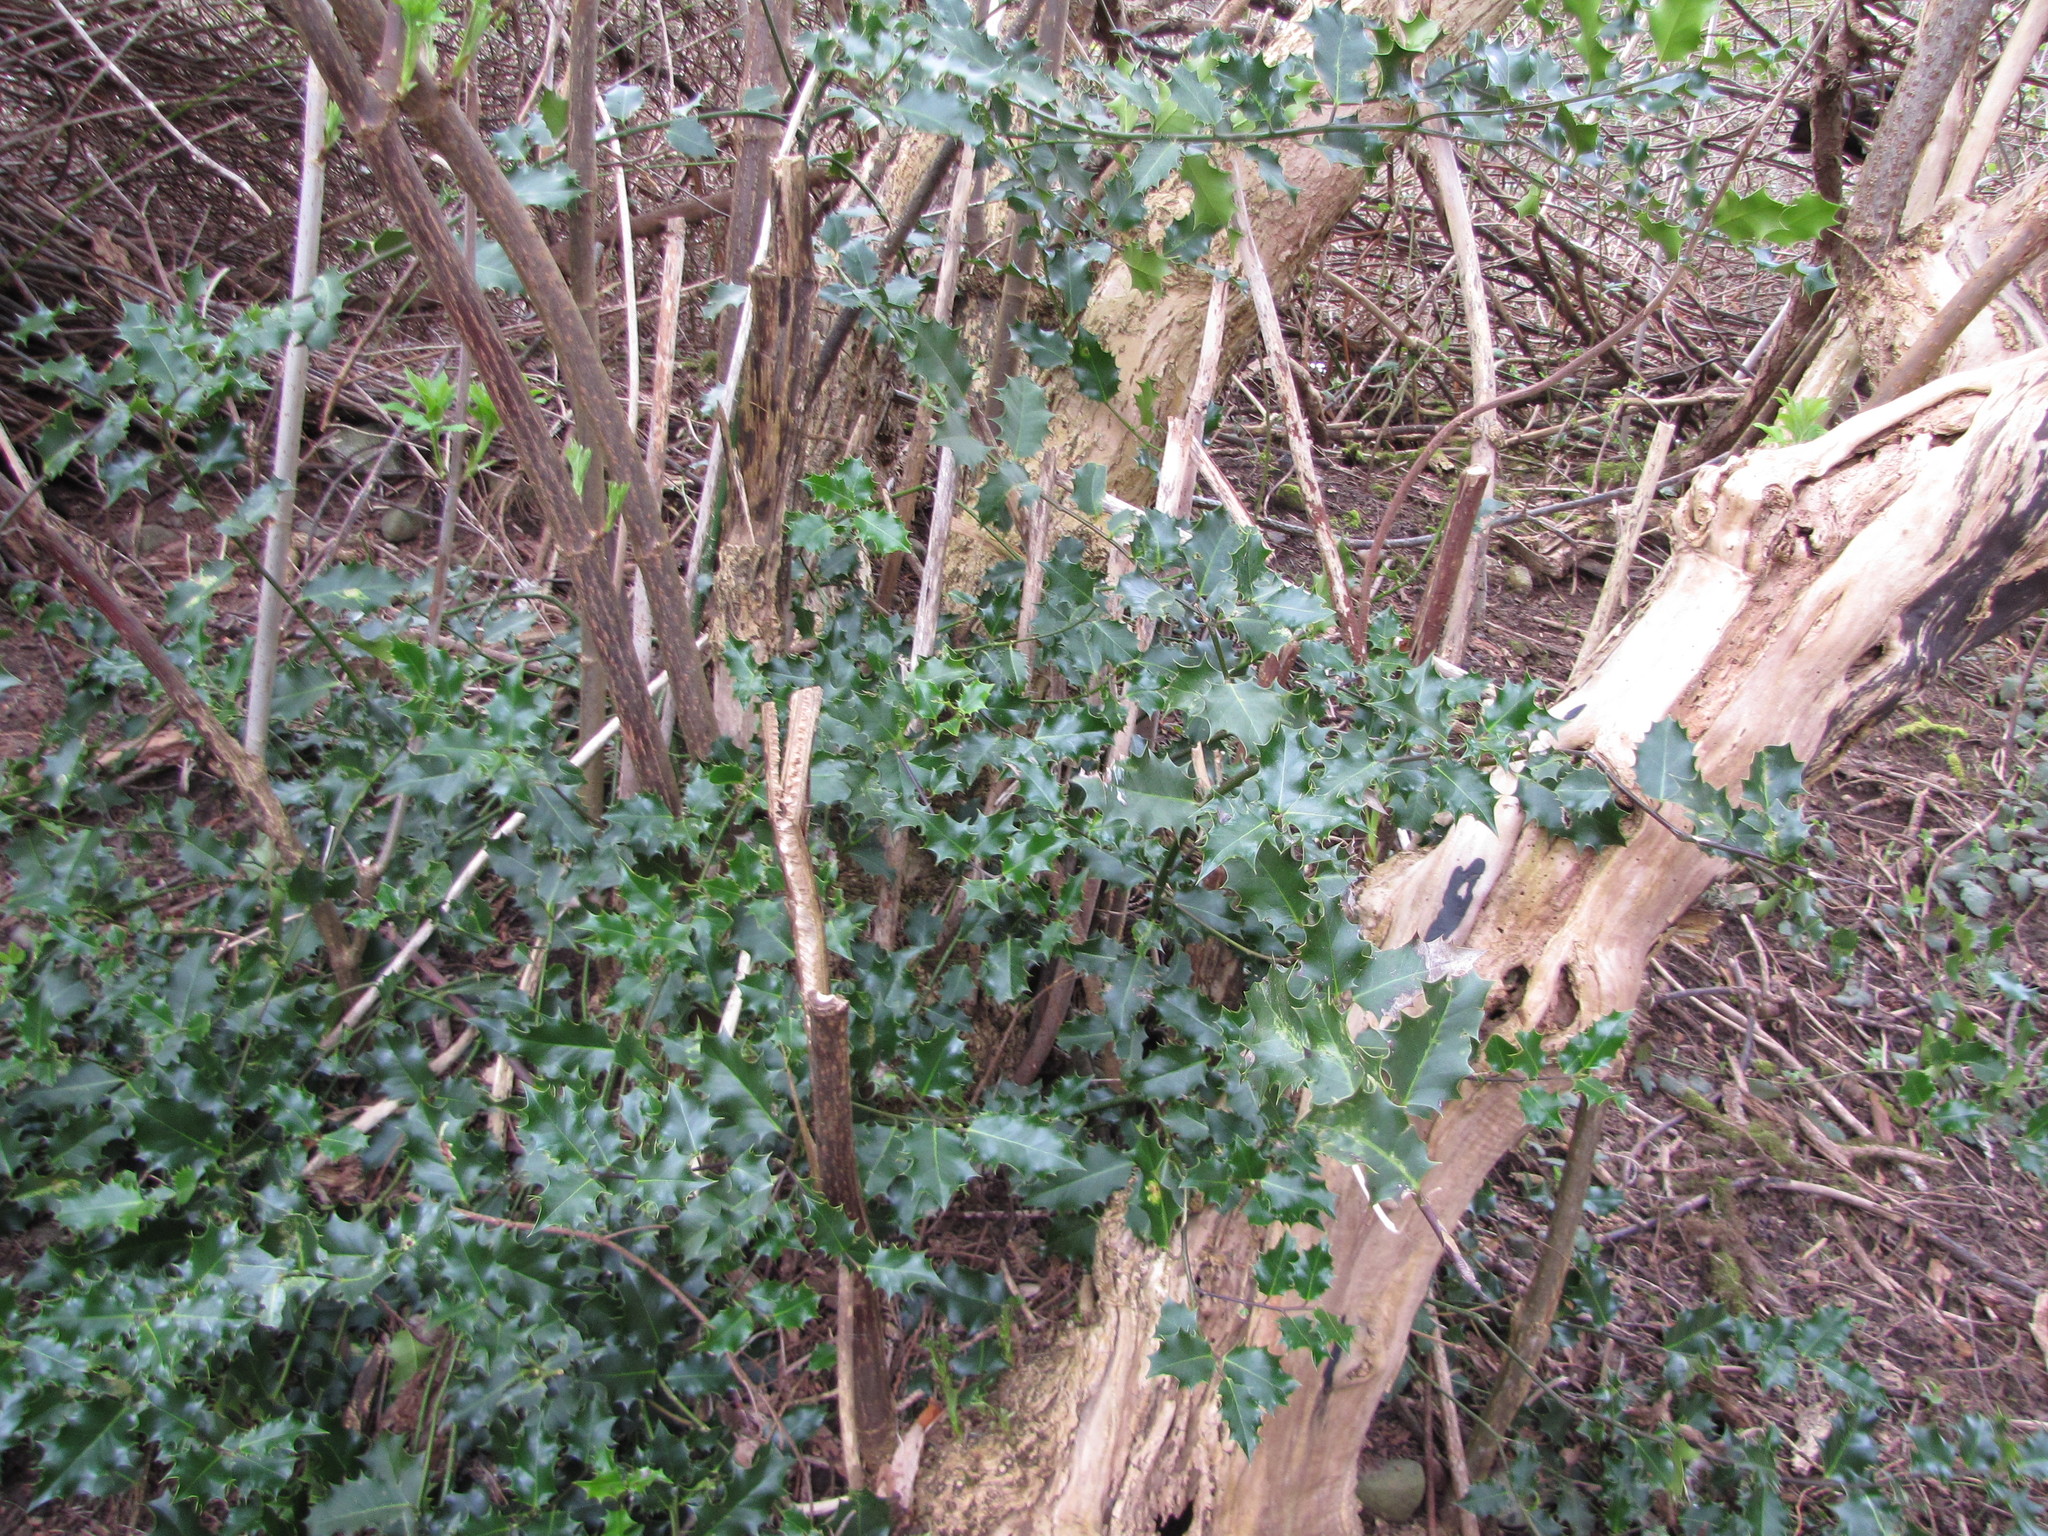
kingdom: Plantae
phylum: Tracheophyta
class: Magnoliopsida
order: Aquifoliales
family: Aquifoliaceae
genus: Ilex
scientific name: Ilex aquifolium
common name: English holly
